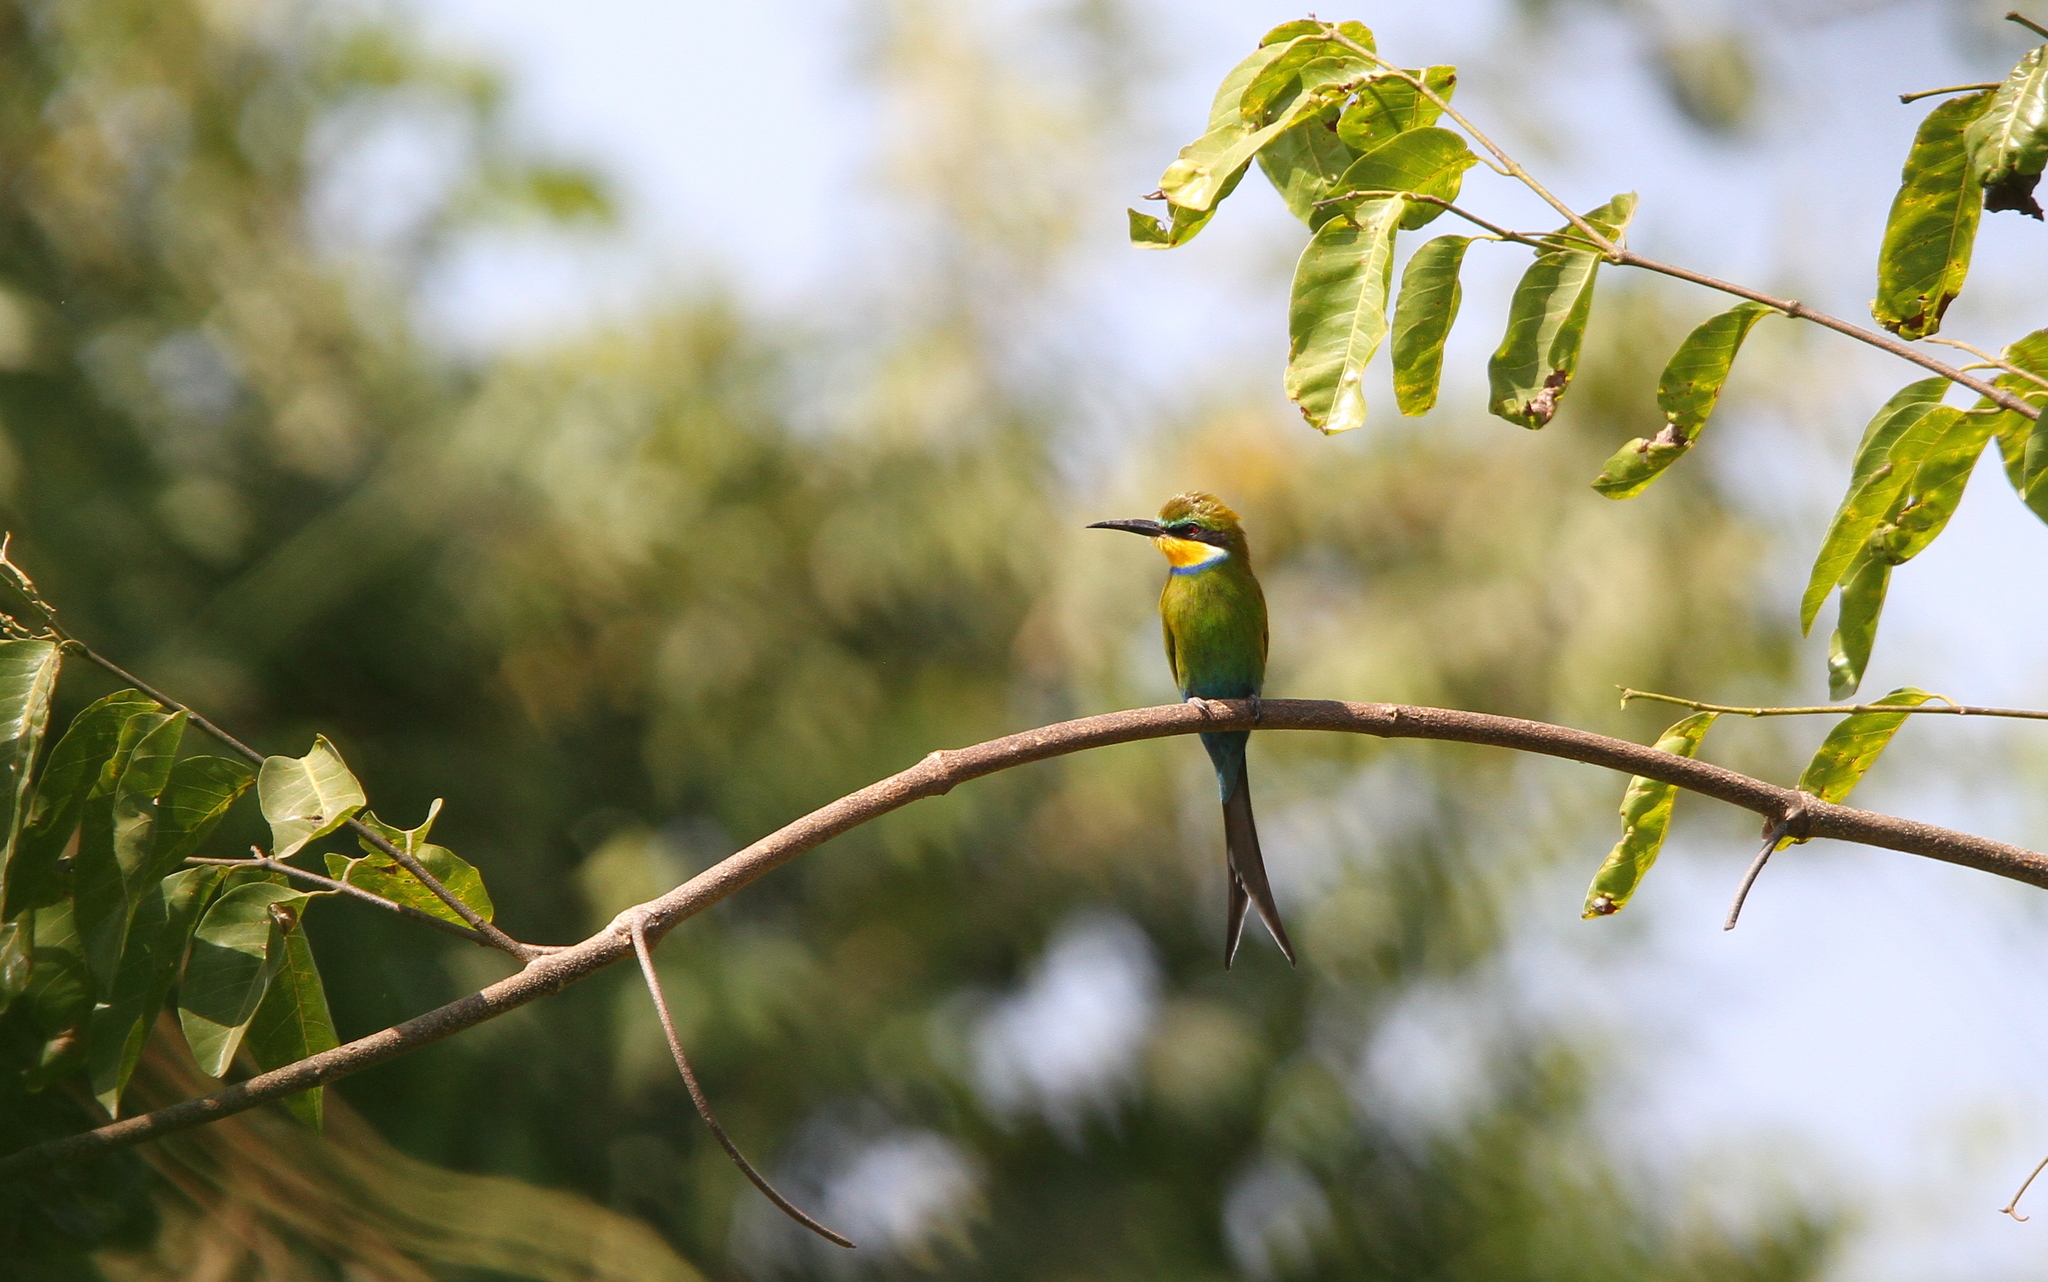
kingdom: Animalia
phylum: Chordata
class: Aves
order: Coraciiformes
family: Meropidae
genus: Merops
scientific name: Merops hirundineus
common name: Swallow-tailed bee-eater
